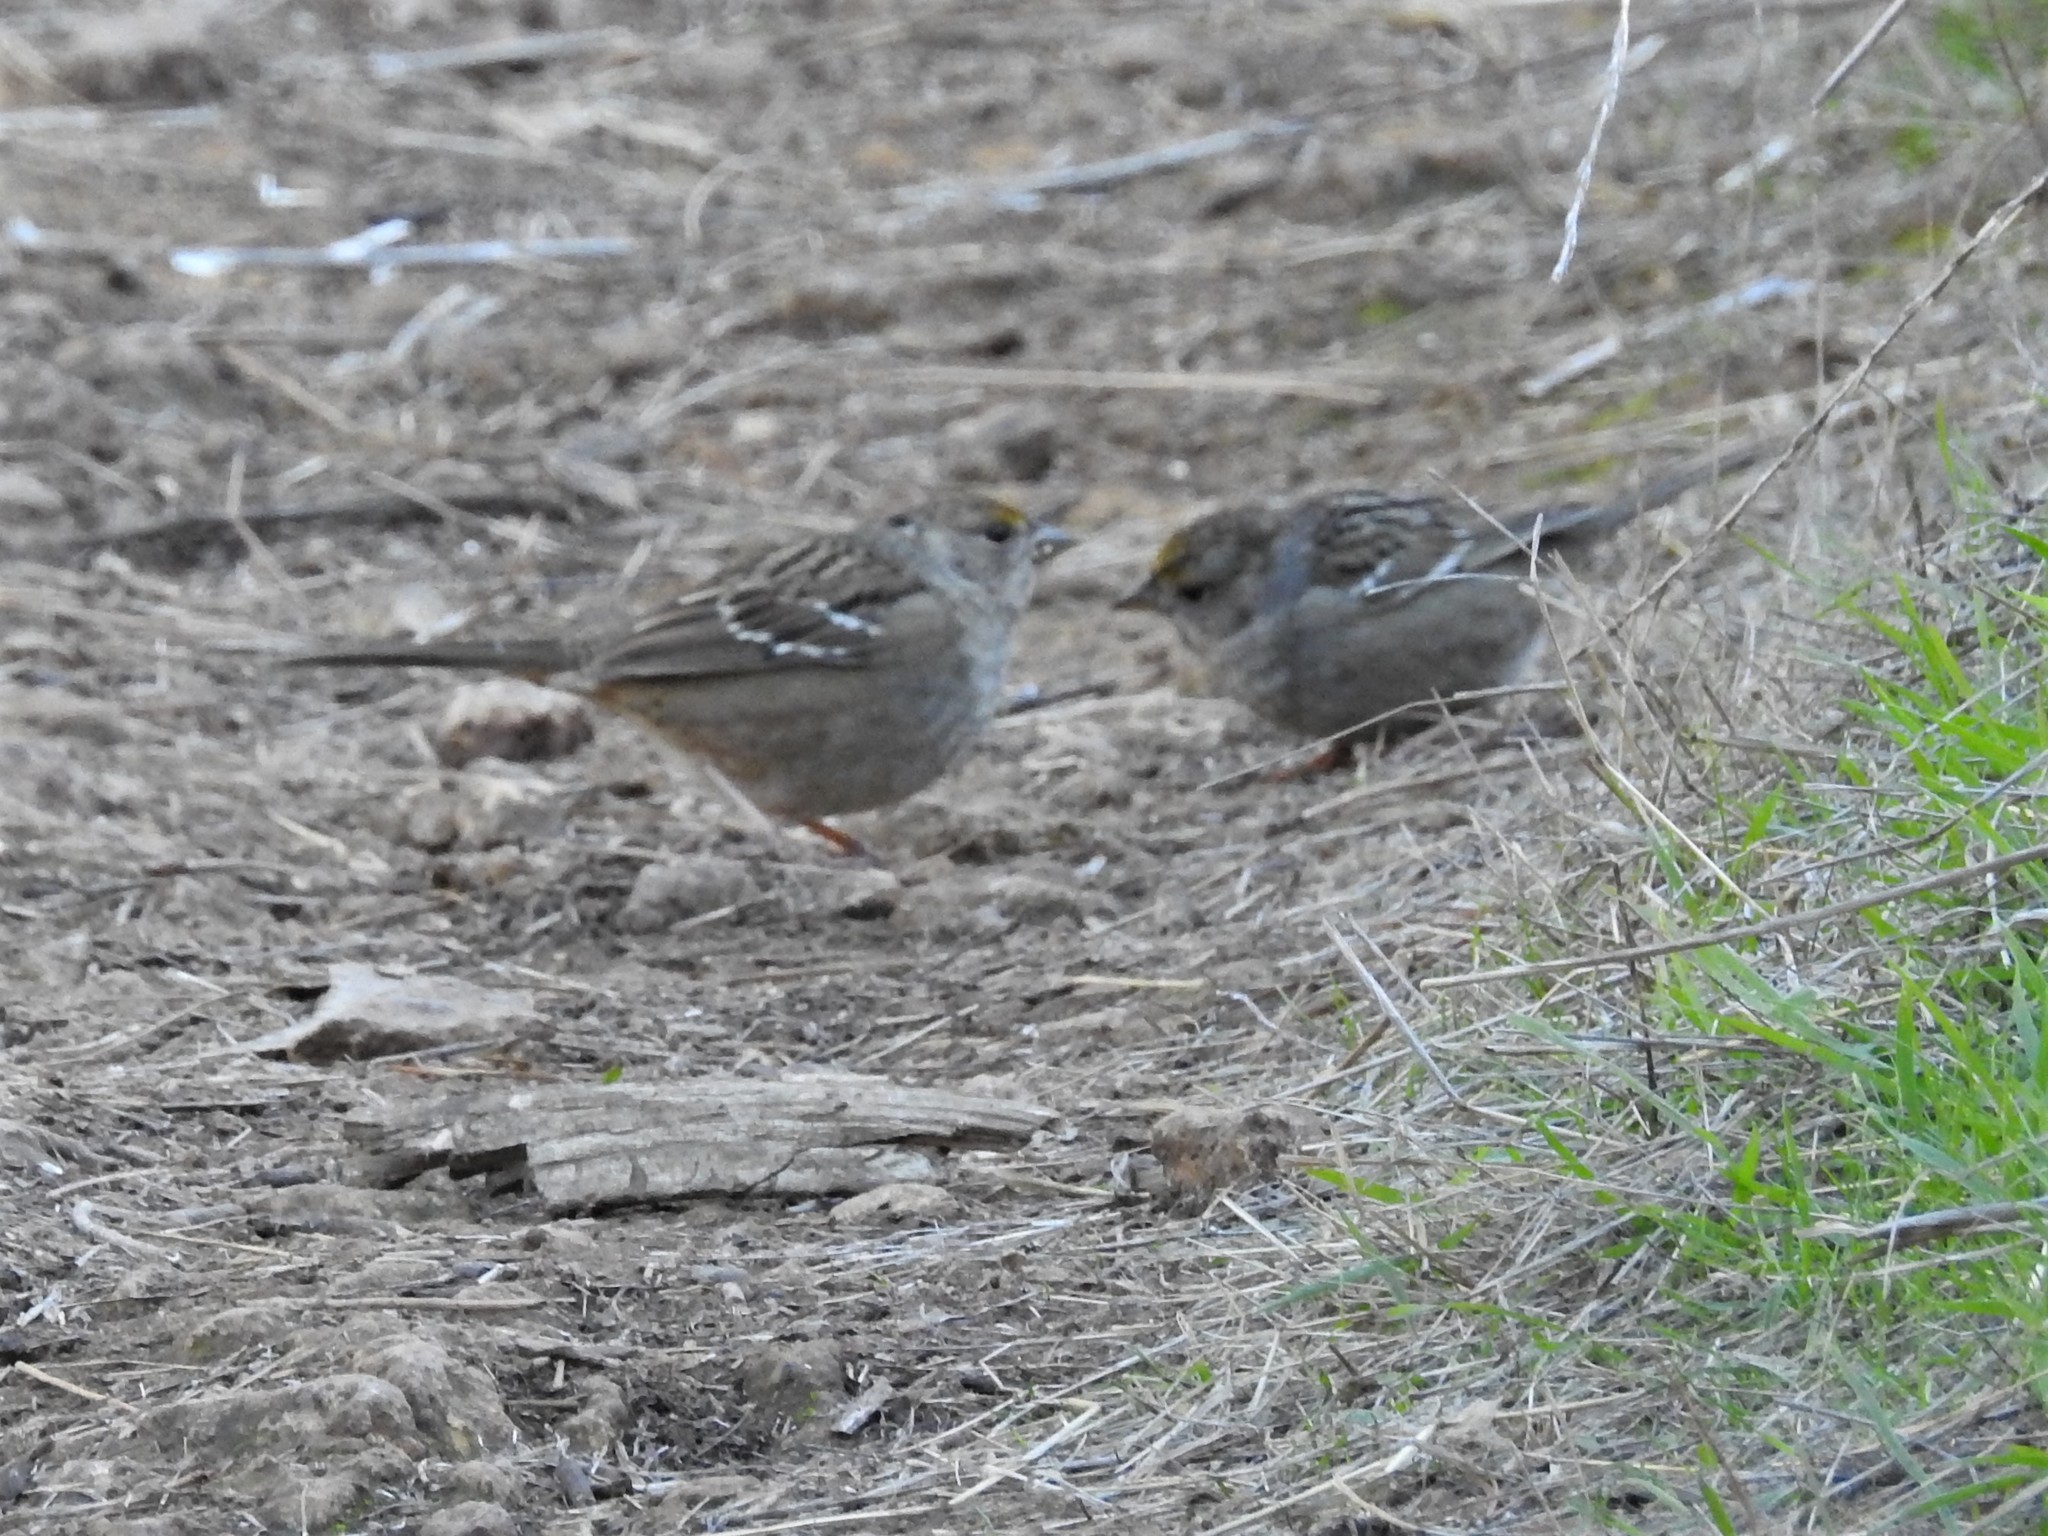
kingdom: Animalia
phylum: Chordata
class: Aves
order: Passeriformes
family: Passerellidae
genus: Zonotrichia
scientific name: Zonotrichia atricapilla
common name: Golden-crowned sparrow
